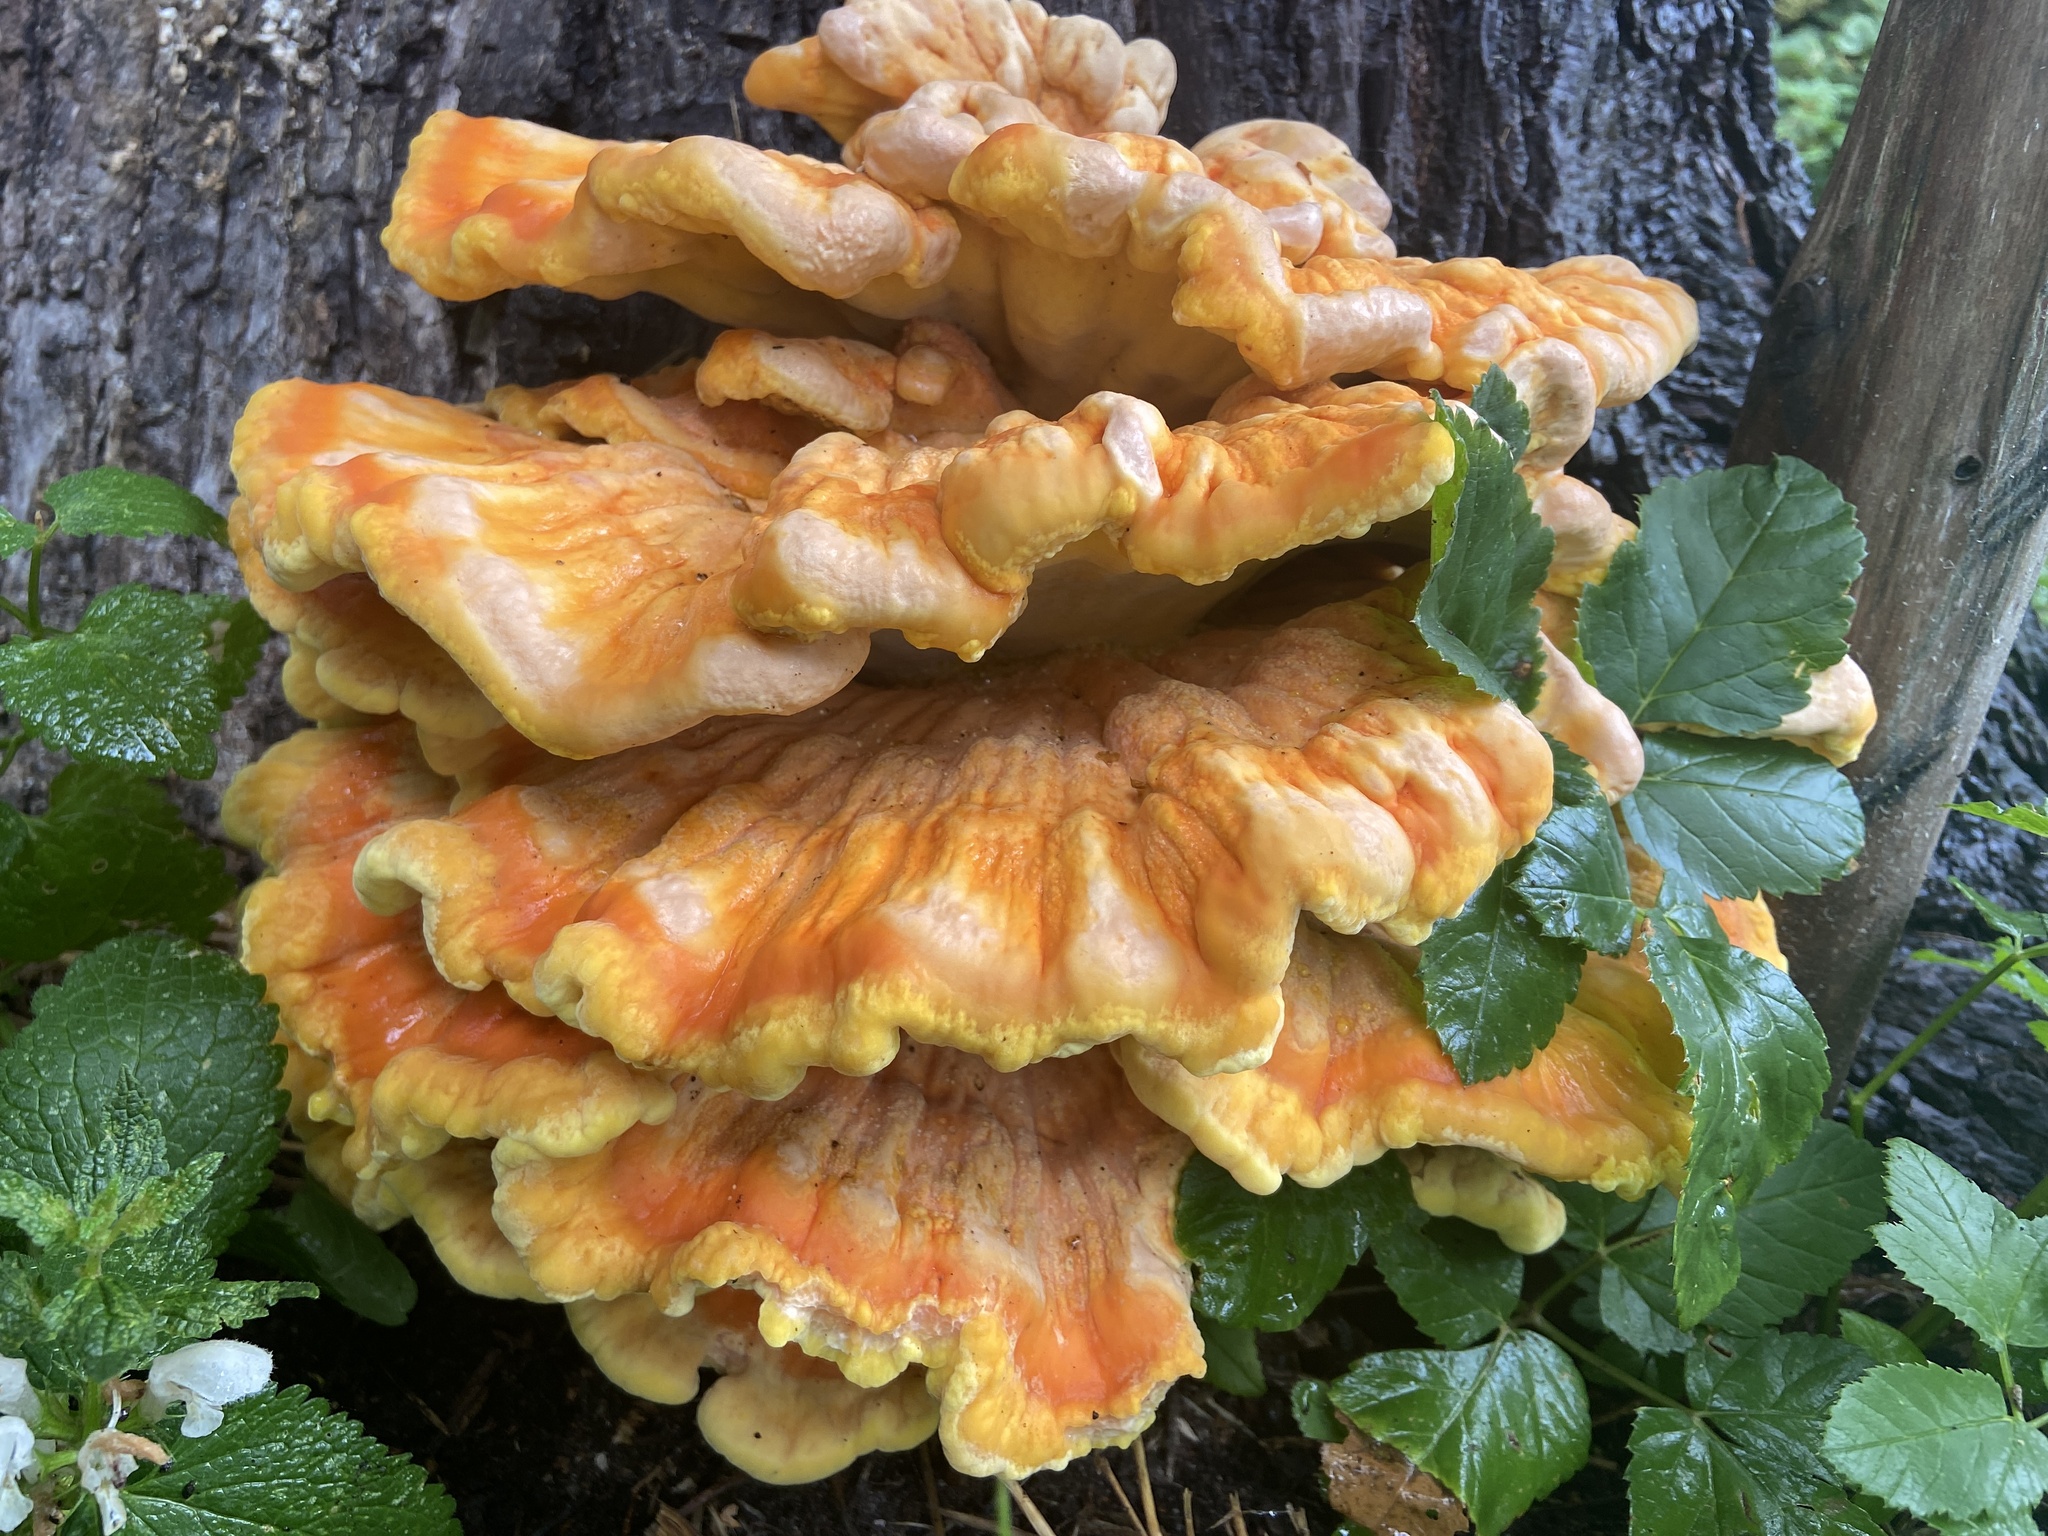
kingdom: Fungi
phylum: Basidiomycota
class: Agaricomycetes
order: Polyporales
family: Laetiporaceae
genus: Laetiporus
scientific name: Laetiporus sulphureus
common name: Chicken of the woods
